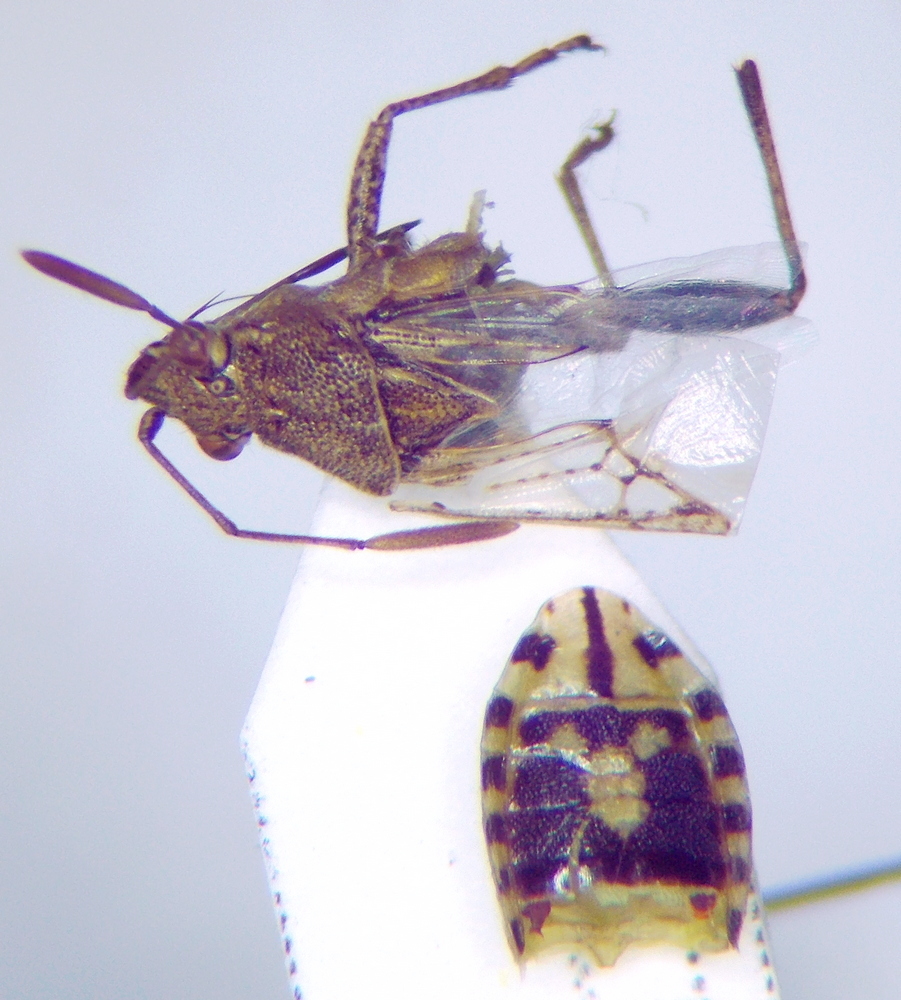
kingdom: Animalia
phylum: Arthropoda
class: Insecta
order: Hemiptera
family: Rhopalidae
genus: Stictopleurus
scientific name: Stictopleurus punctatonervosus
